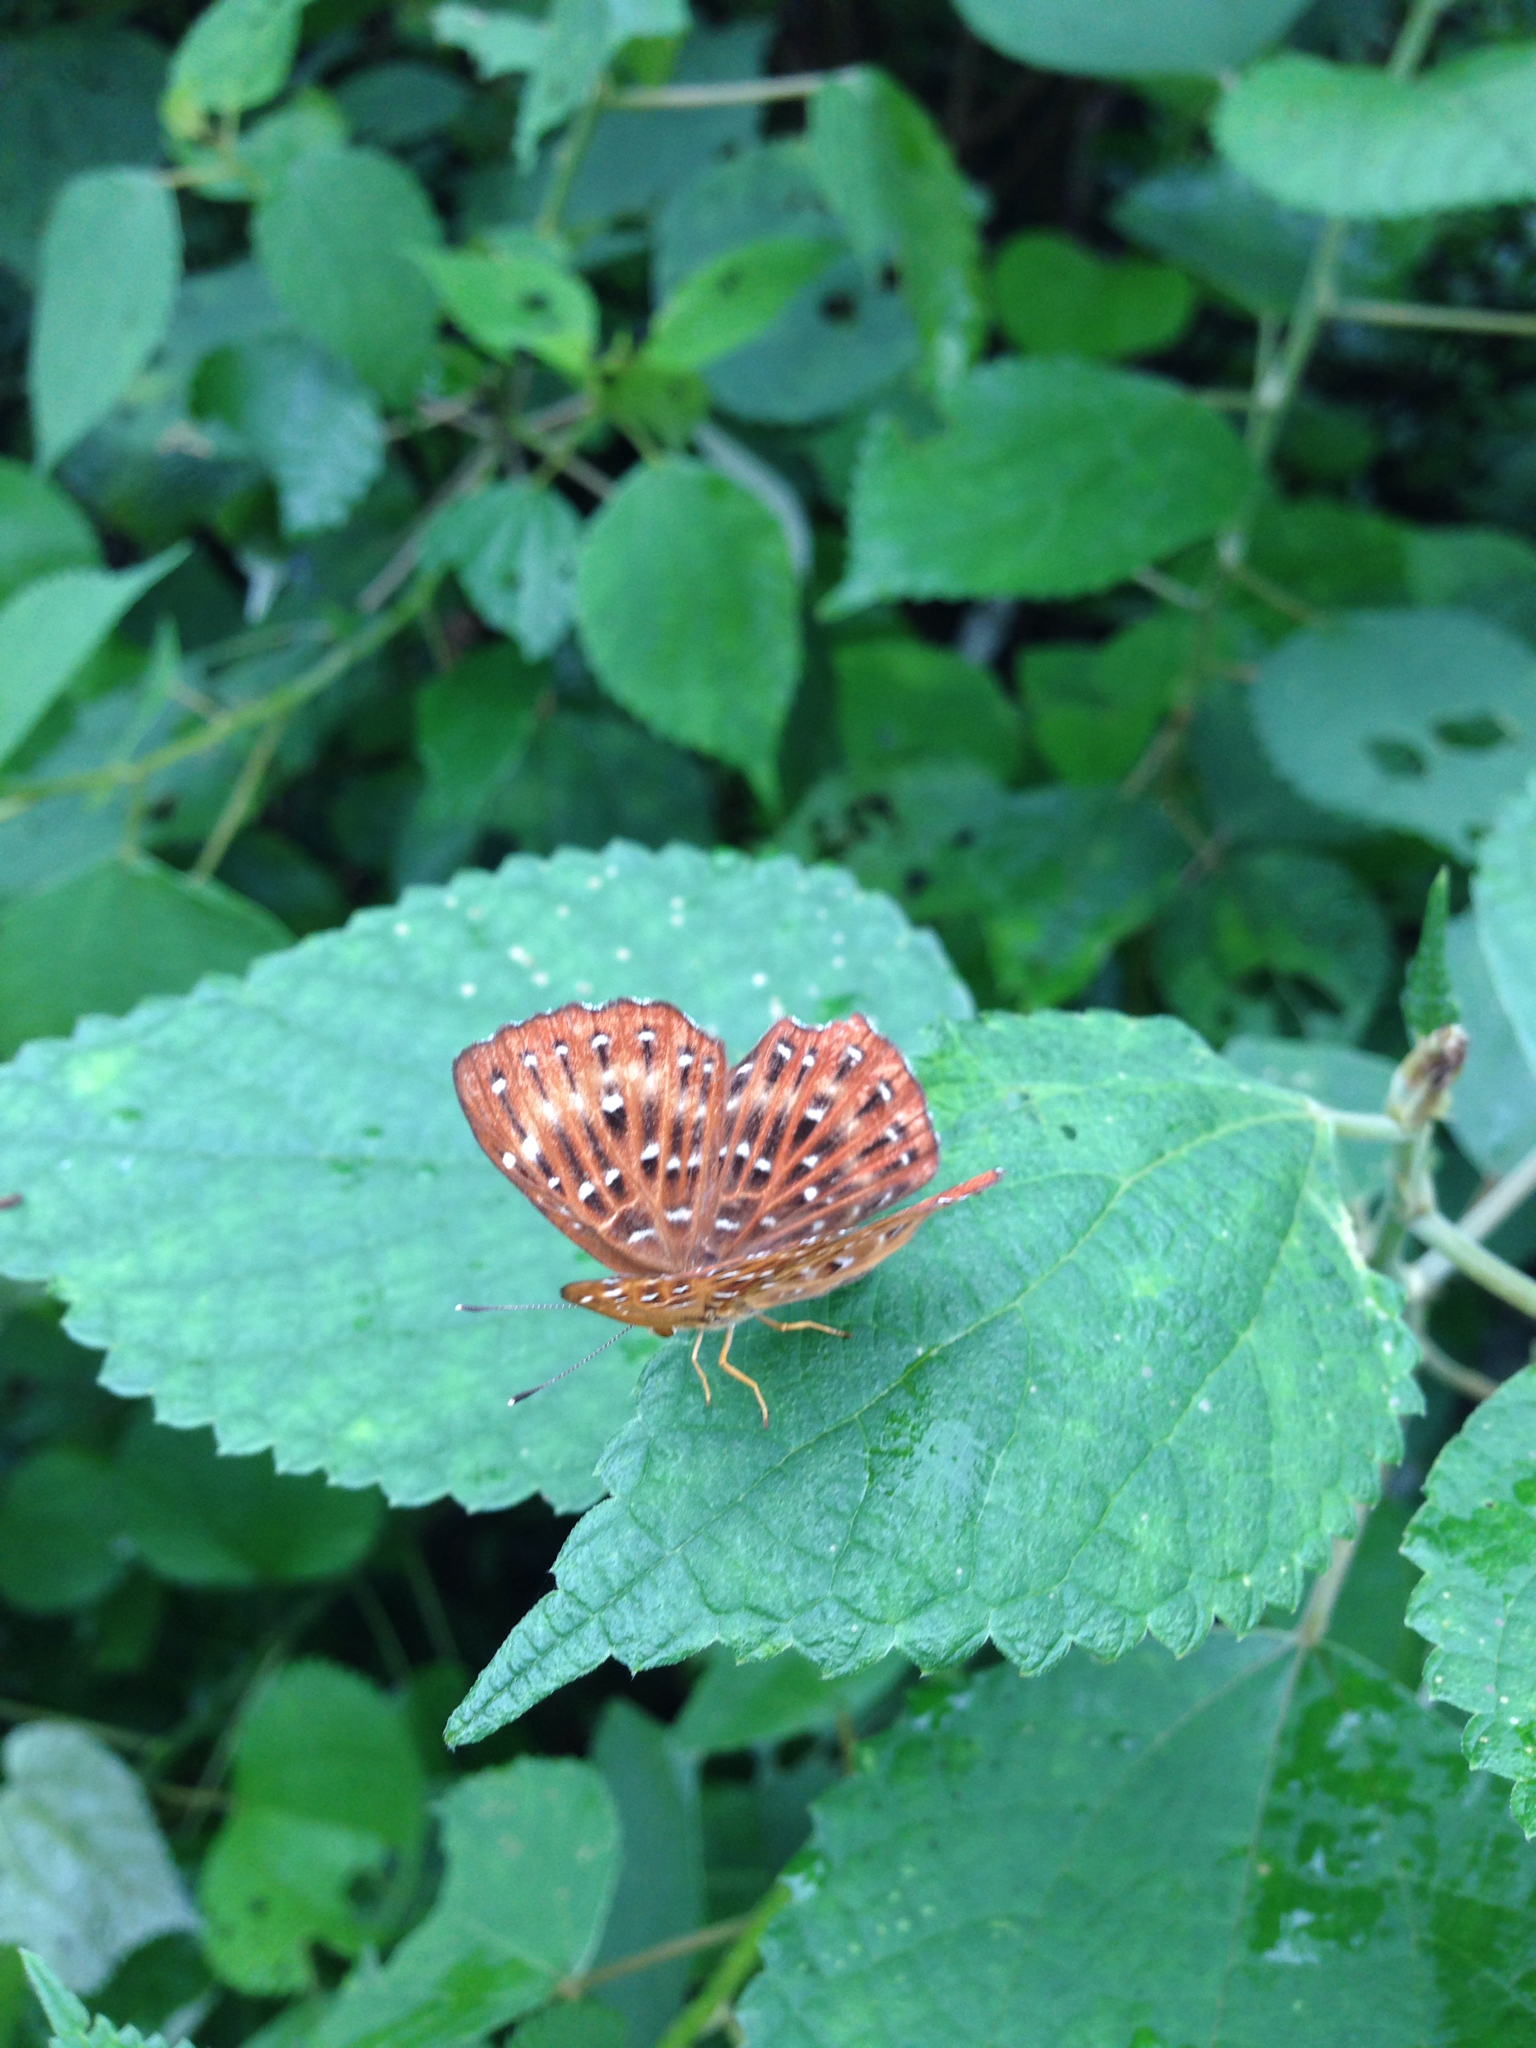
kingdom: Animalia
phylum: Arthropoda
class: Insecta
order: Lepidoptera
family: Riodinidae
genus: Zemeros
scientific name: Zemeros flegyas
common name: Punchinello
